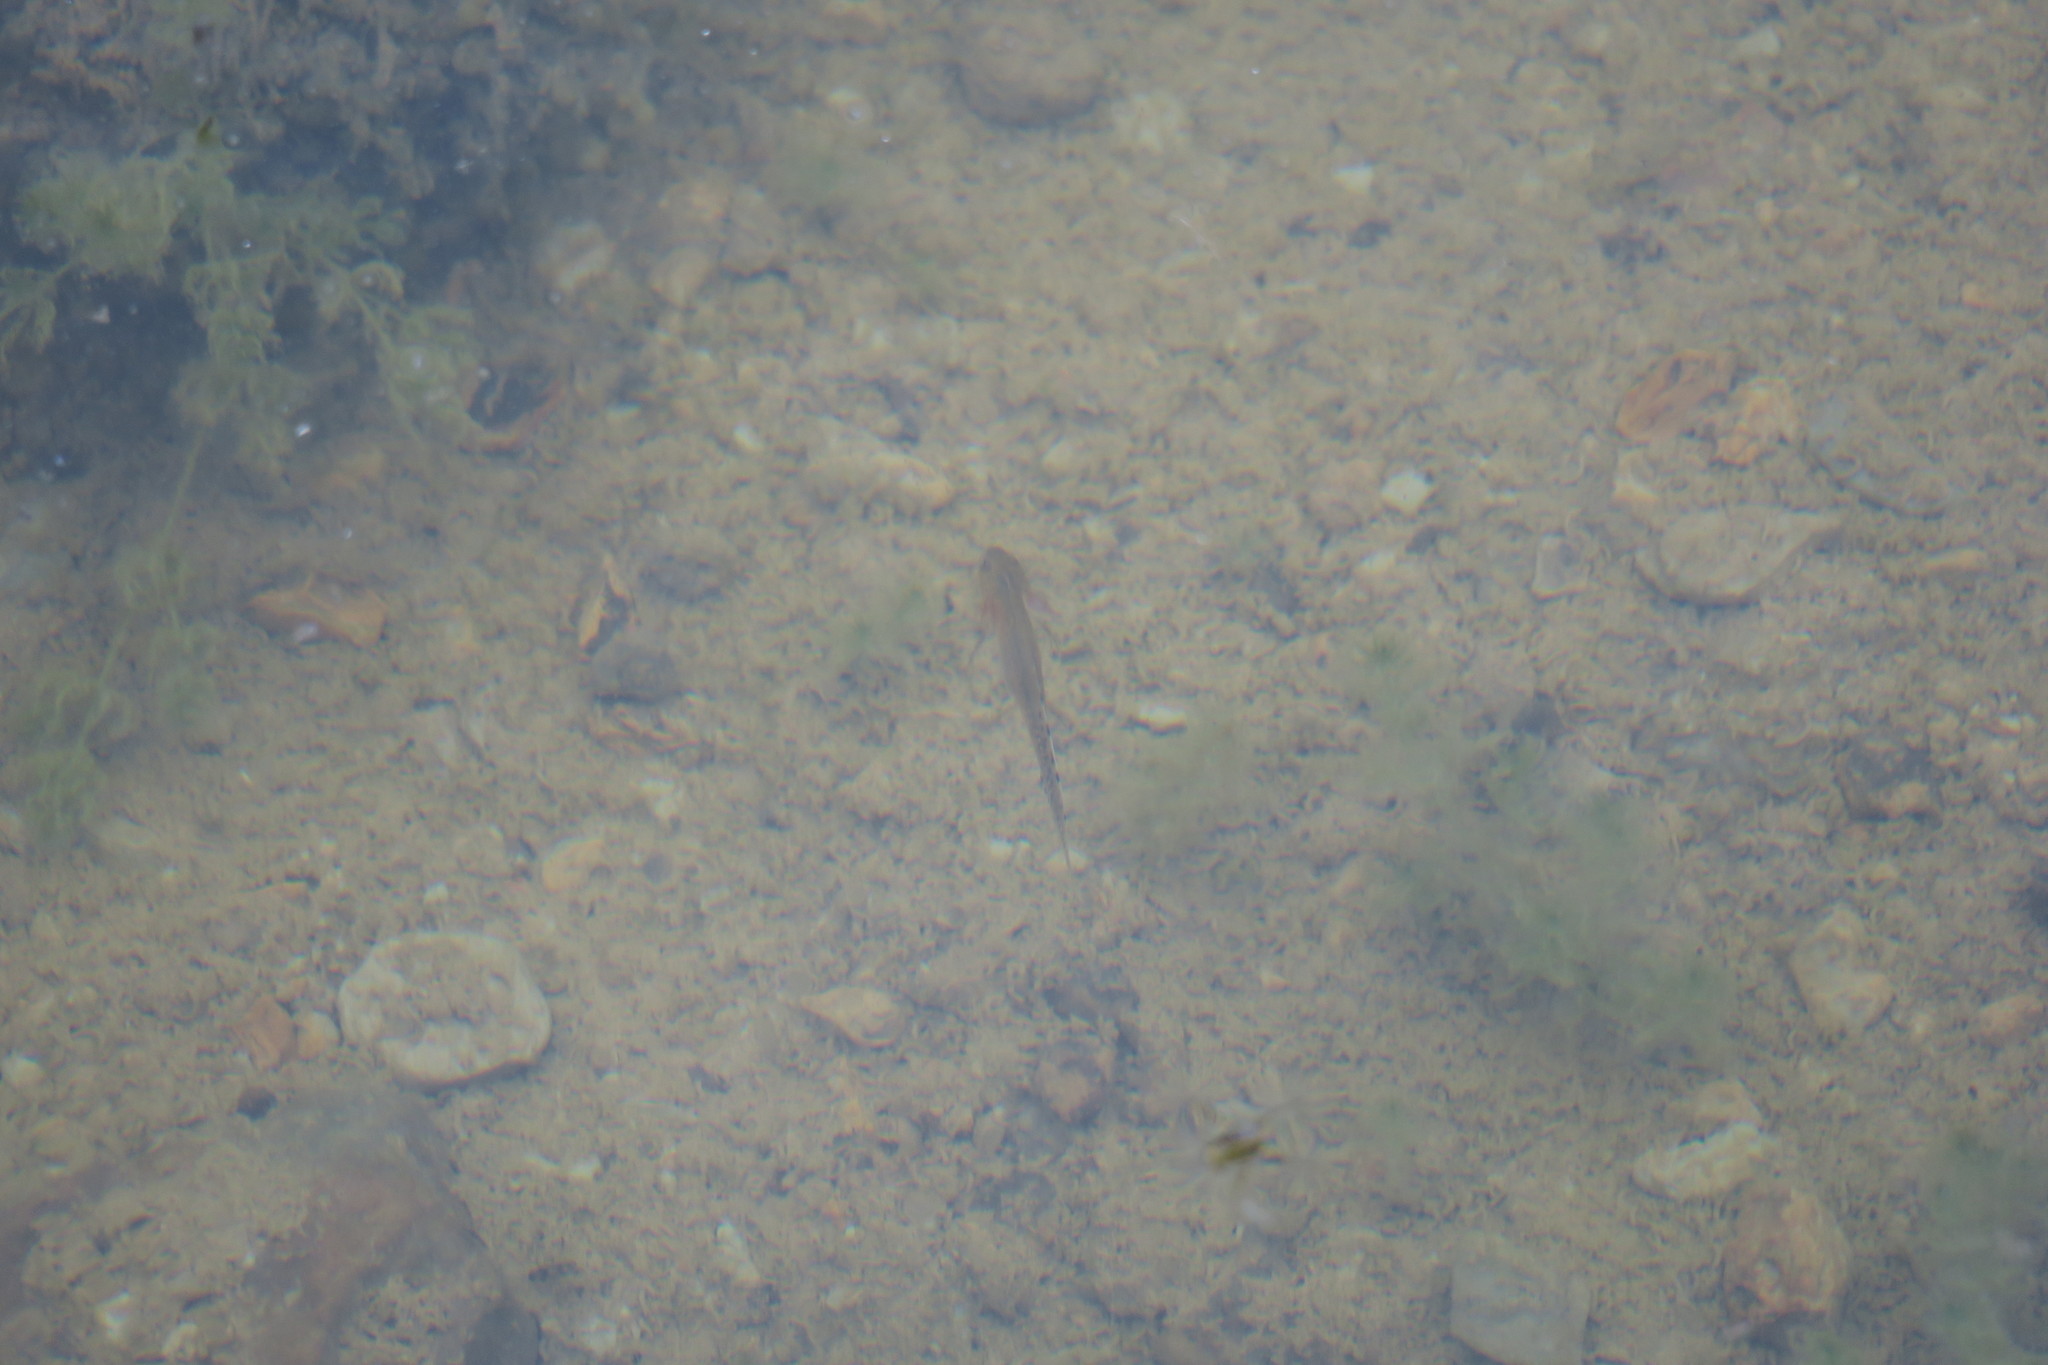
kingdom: Animalia
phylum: Chordata
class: Amphibia
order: Caudata
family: Salamandridae
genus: Triturus
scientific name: Triturus pygmaeus
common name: Southern marbled newt
